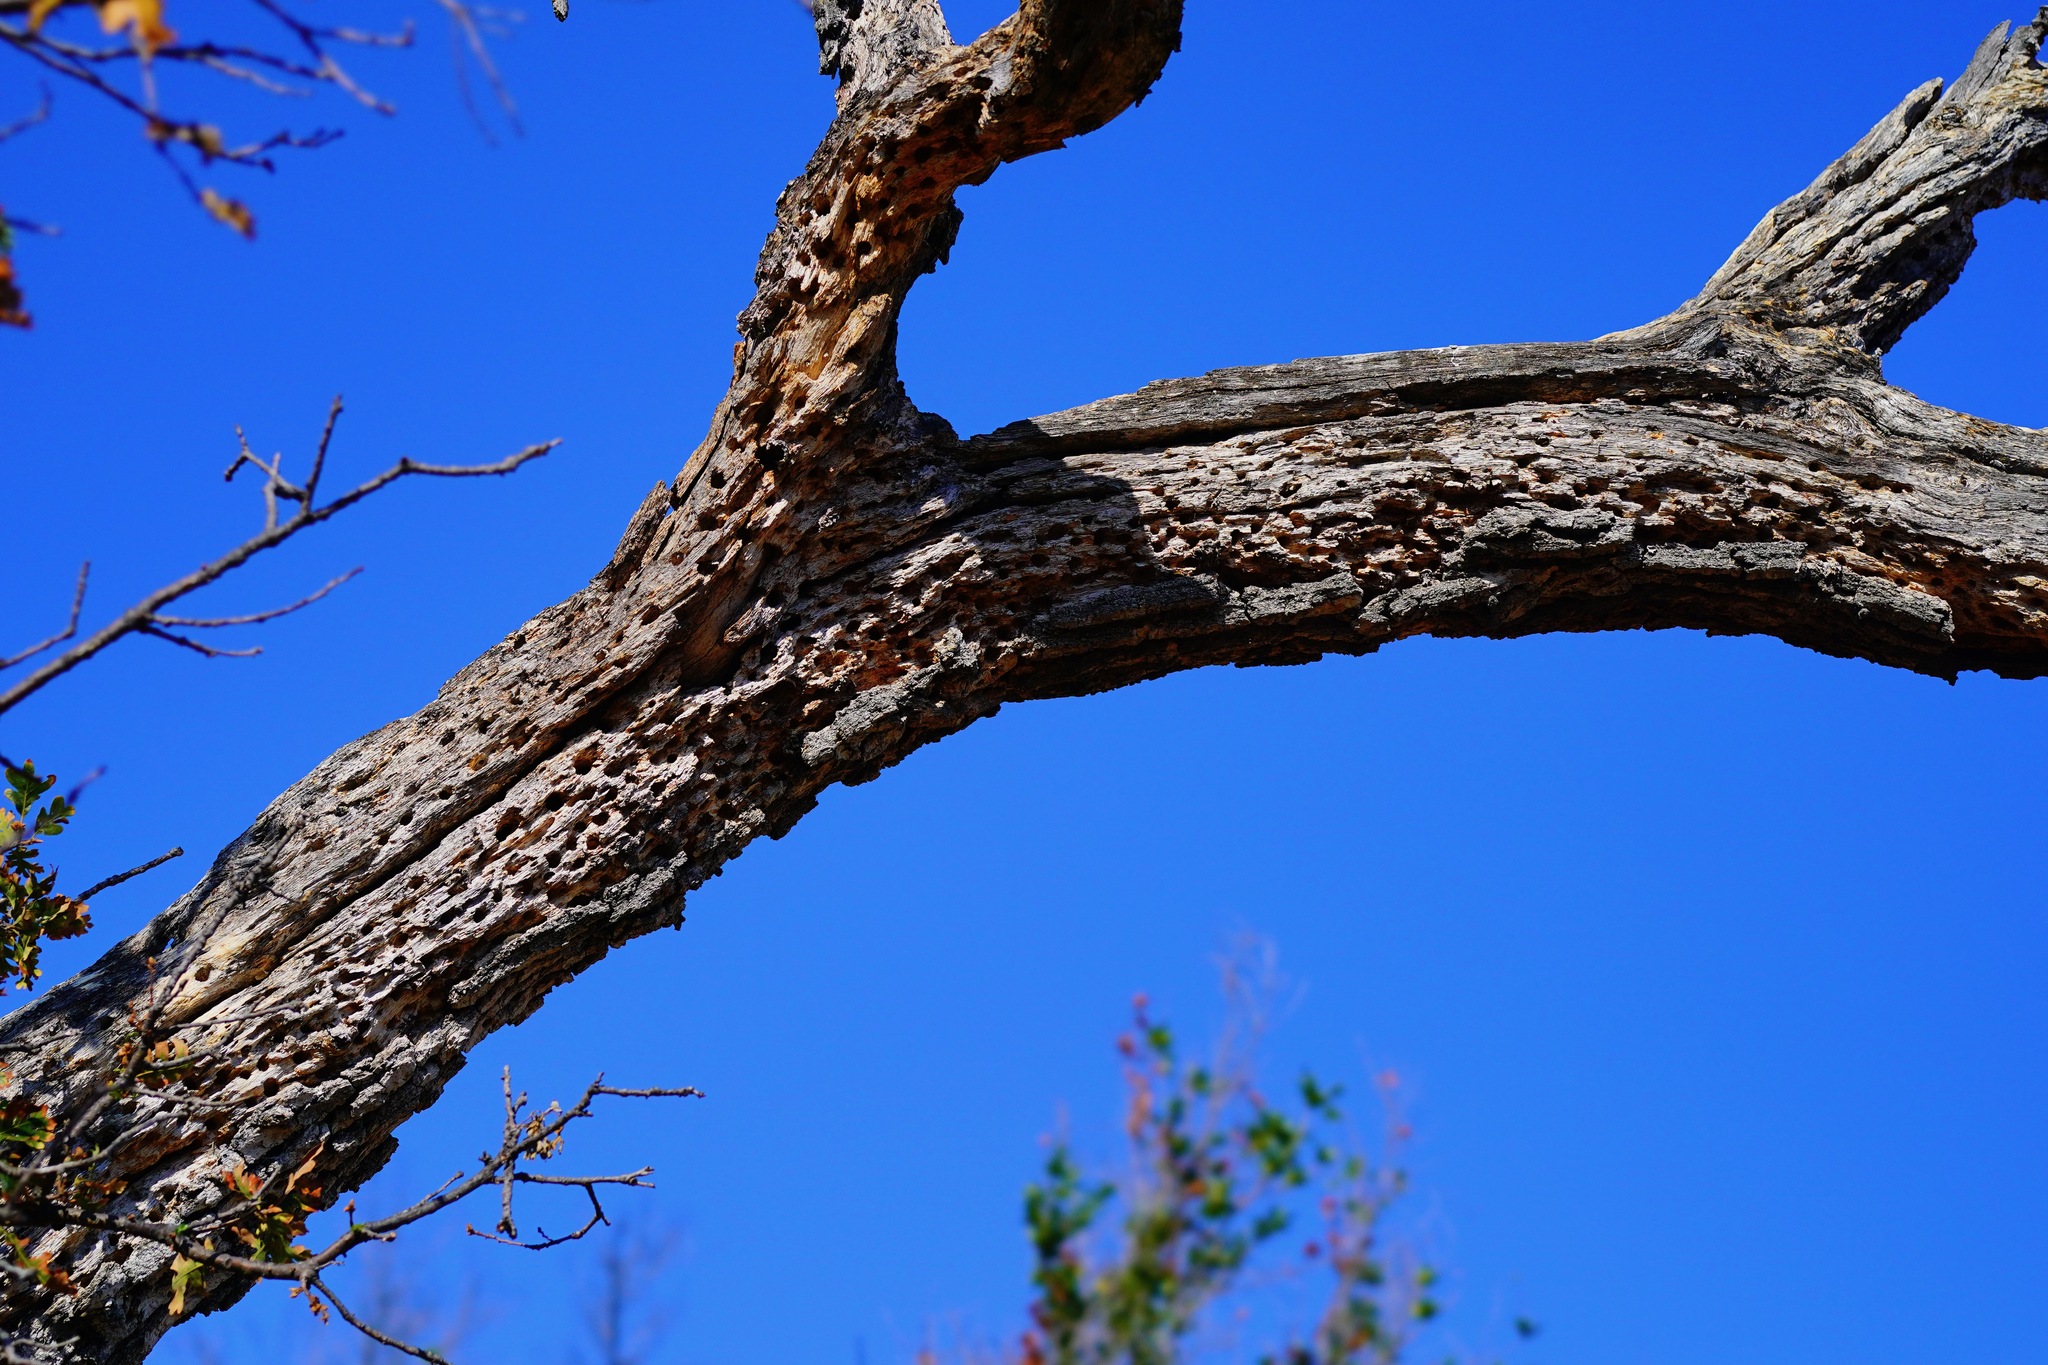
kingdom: Animalia
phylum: Chordata
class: Aves
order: Piciformes
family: Picidae
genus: Melanerpes
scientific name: Melanerpes formicivorus
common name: Acorn woodpecker
